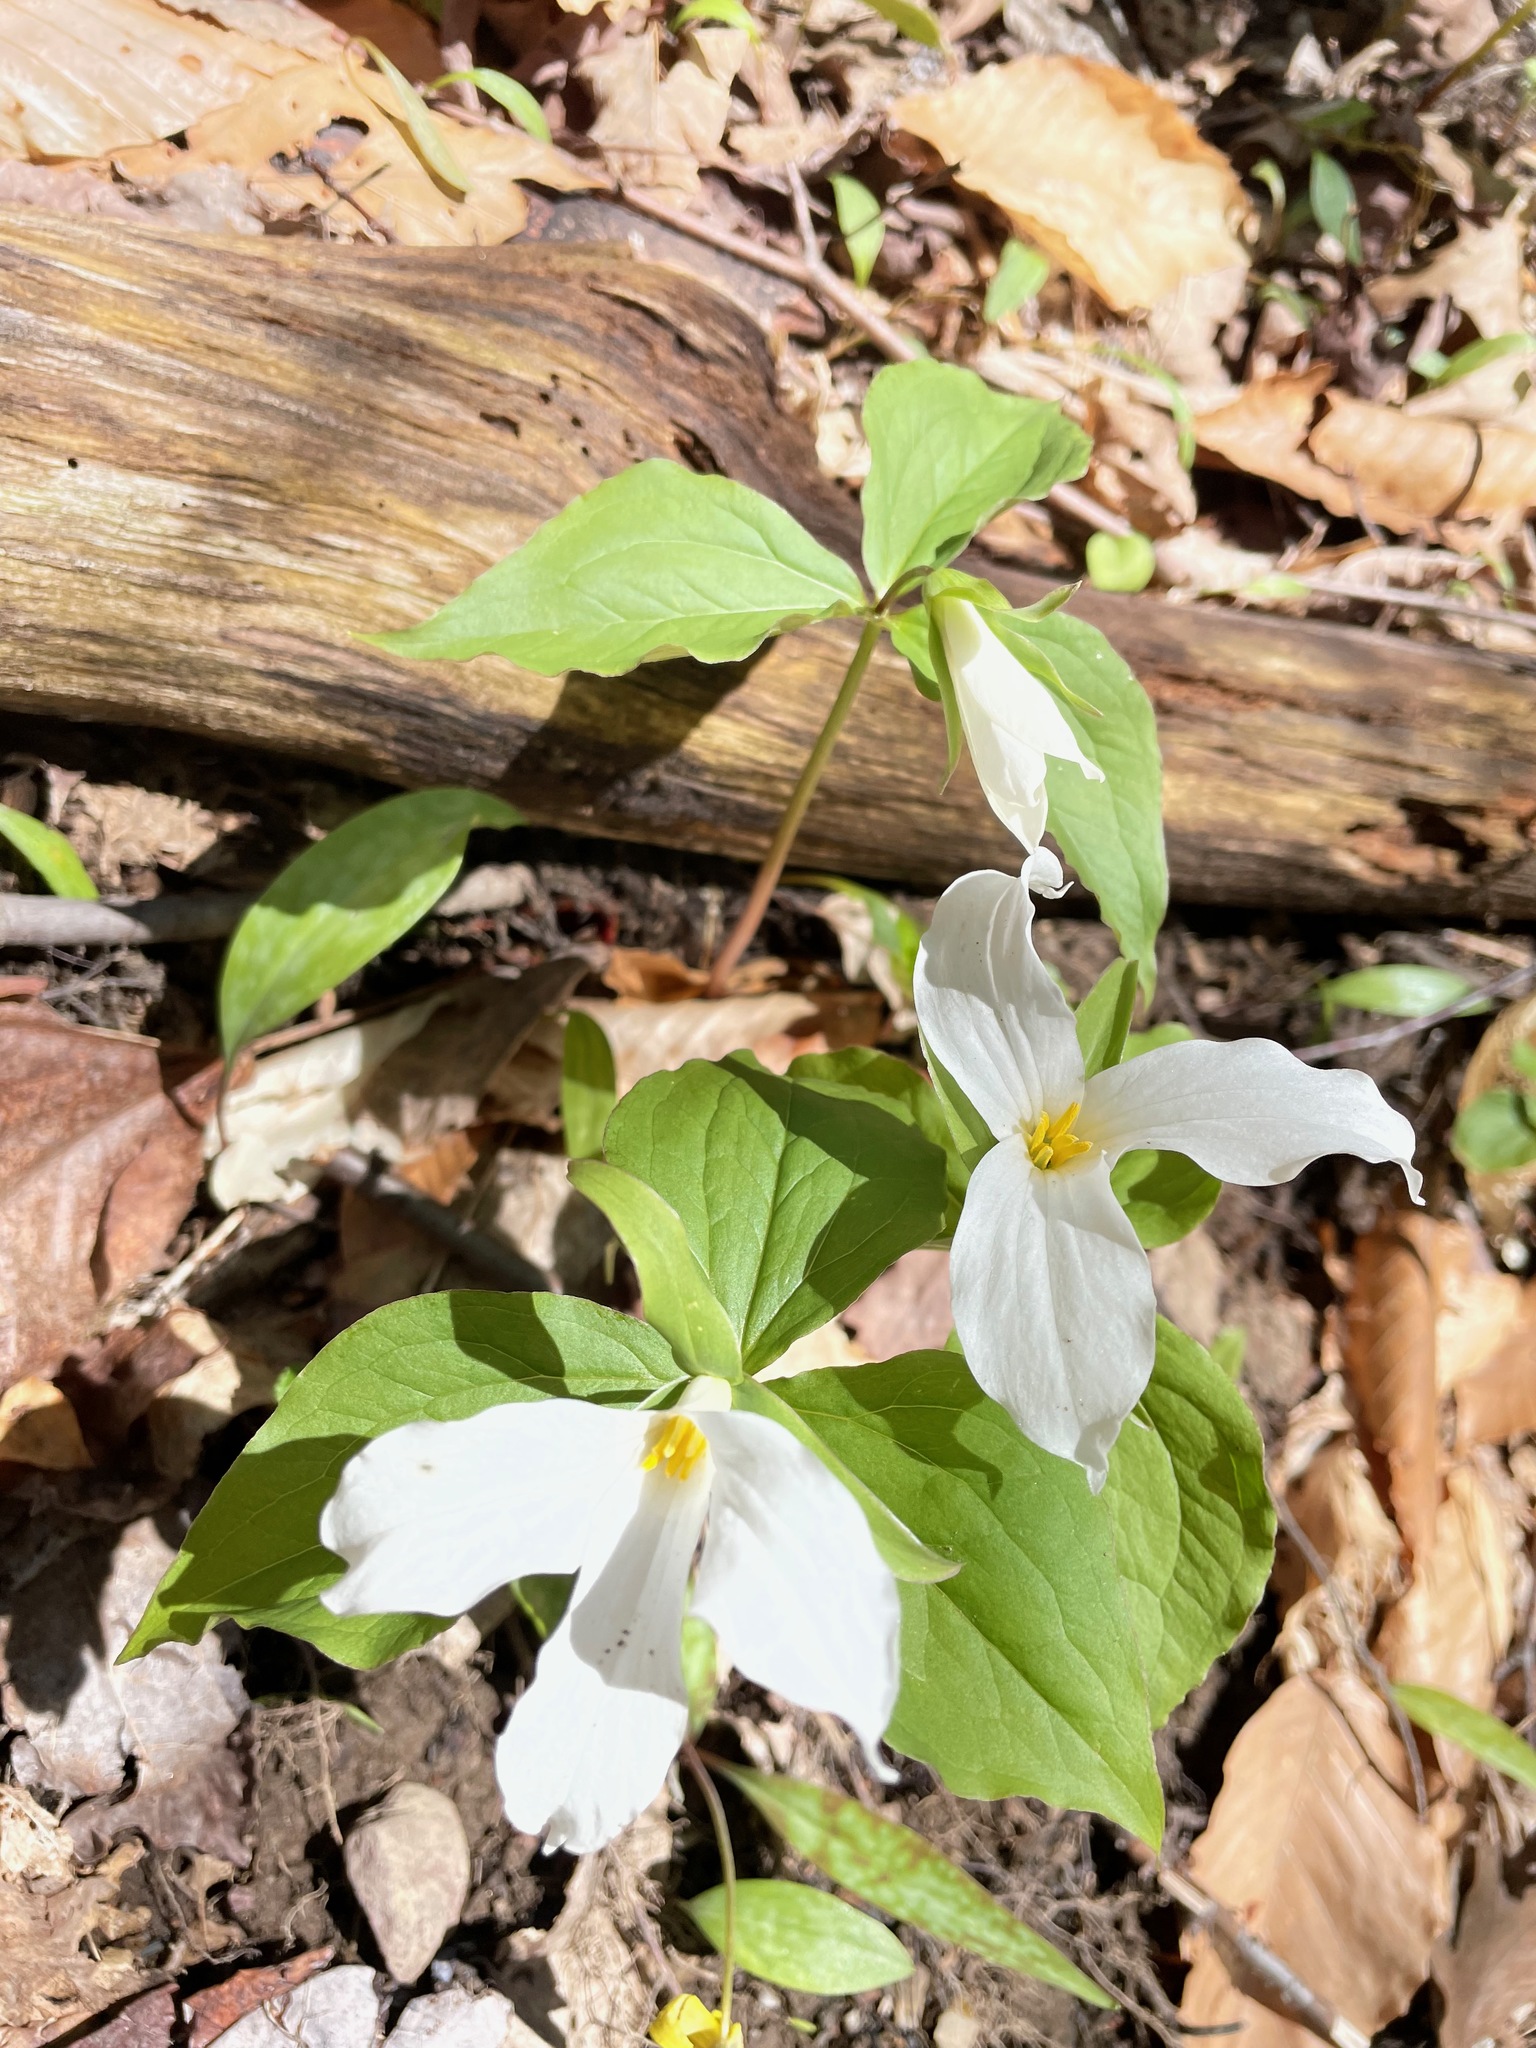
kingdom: Plantae
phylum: Tracheophyta
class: Liliopsida
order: Liliales
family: Melanthiaceae
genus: Trillium
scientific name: Trillium grandiflorum
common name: Great white trillium
